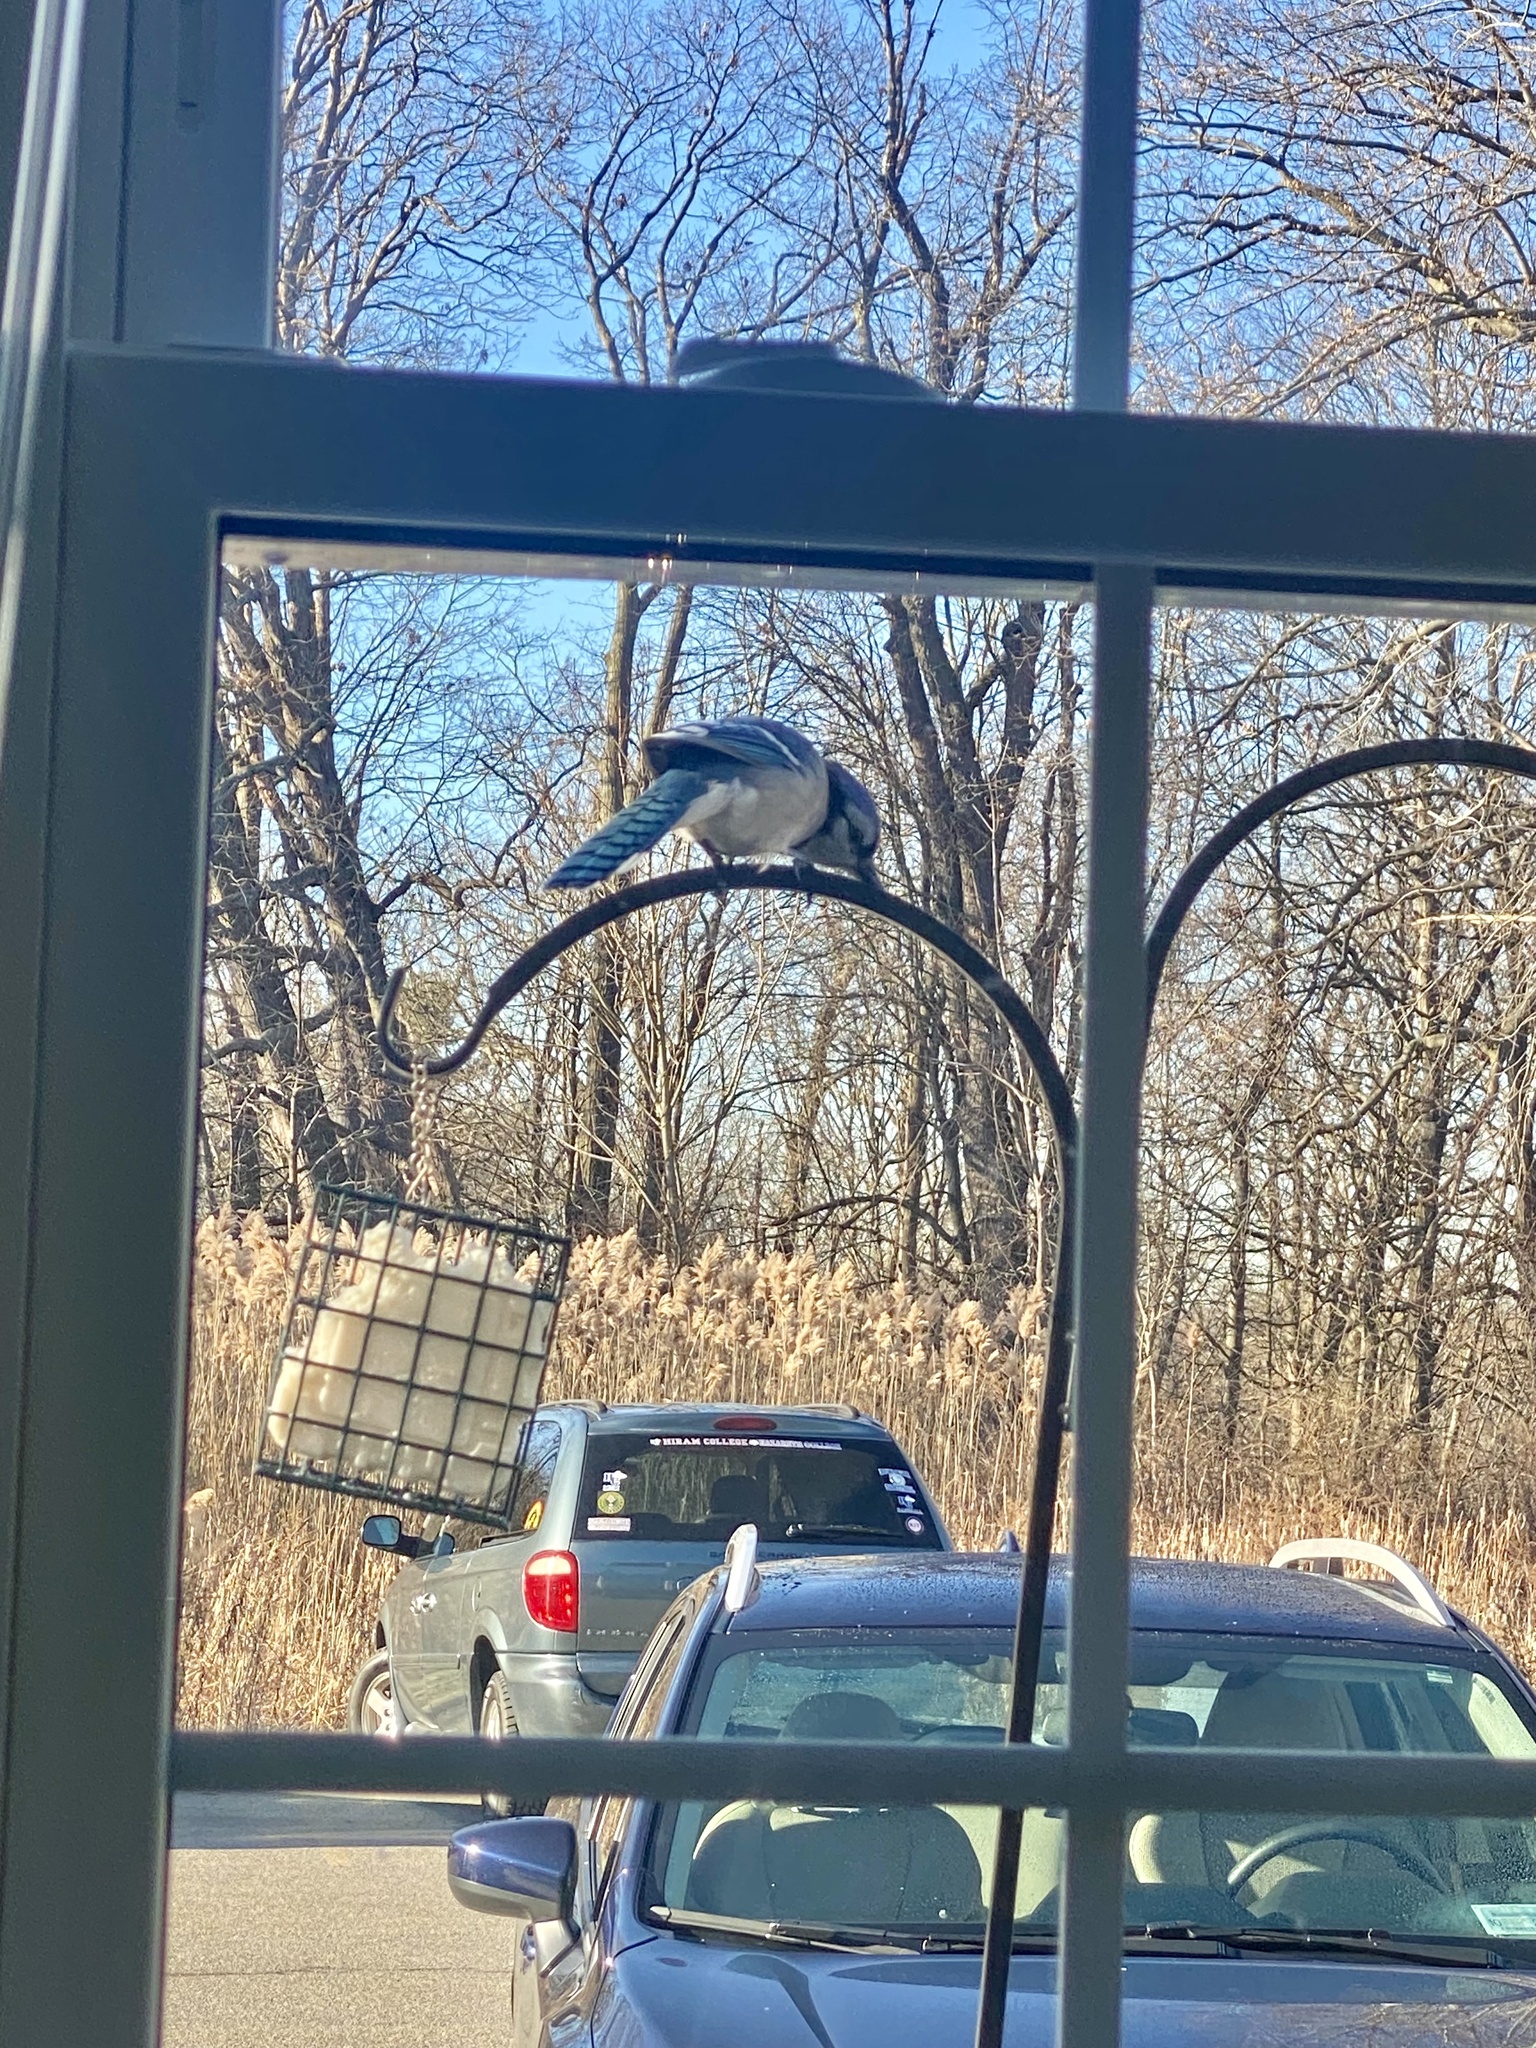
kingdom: Animalia
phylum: Chordata
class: Aves
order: Passeriformes
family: Corvidae
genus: Cyanocitta
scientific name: Cyanocitta cristata
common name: Blue jay
